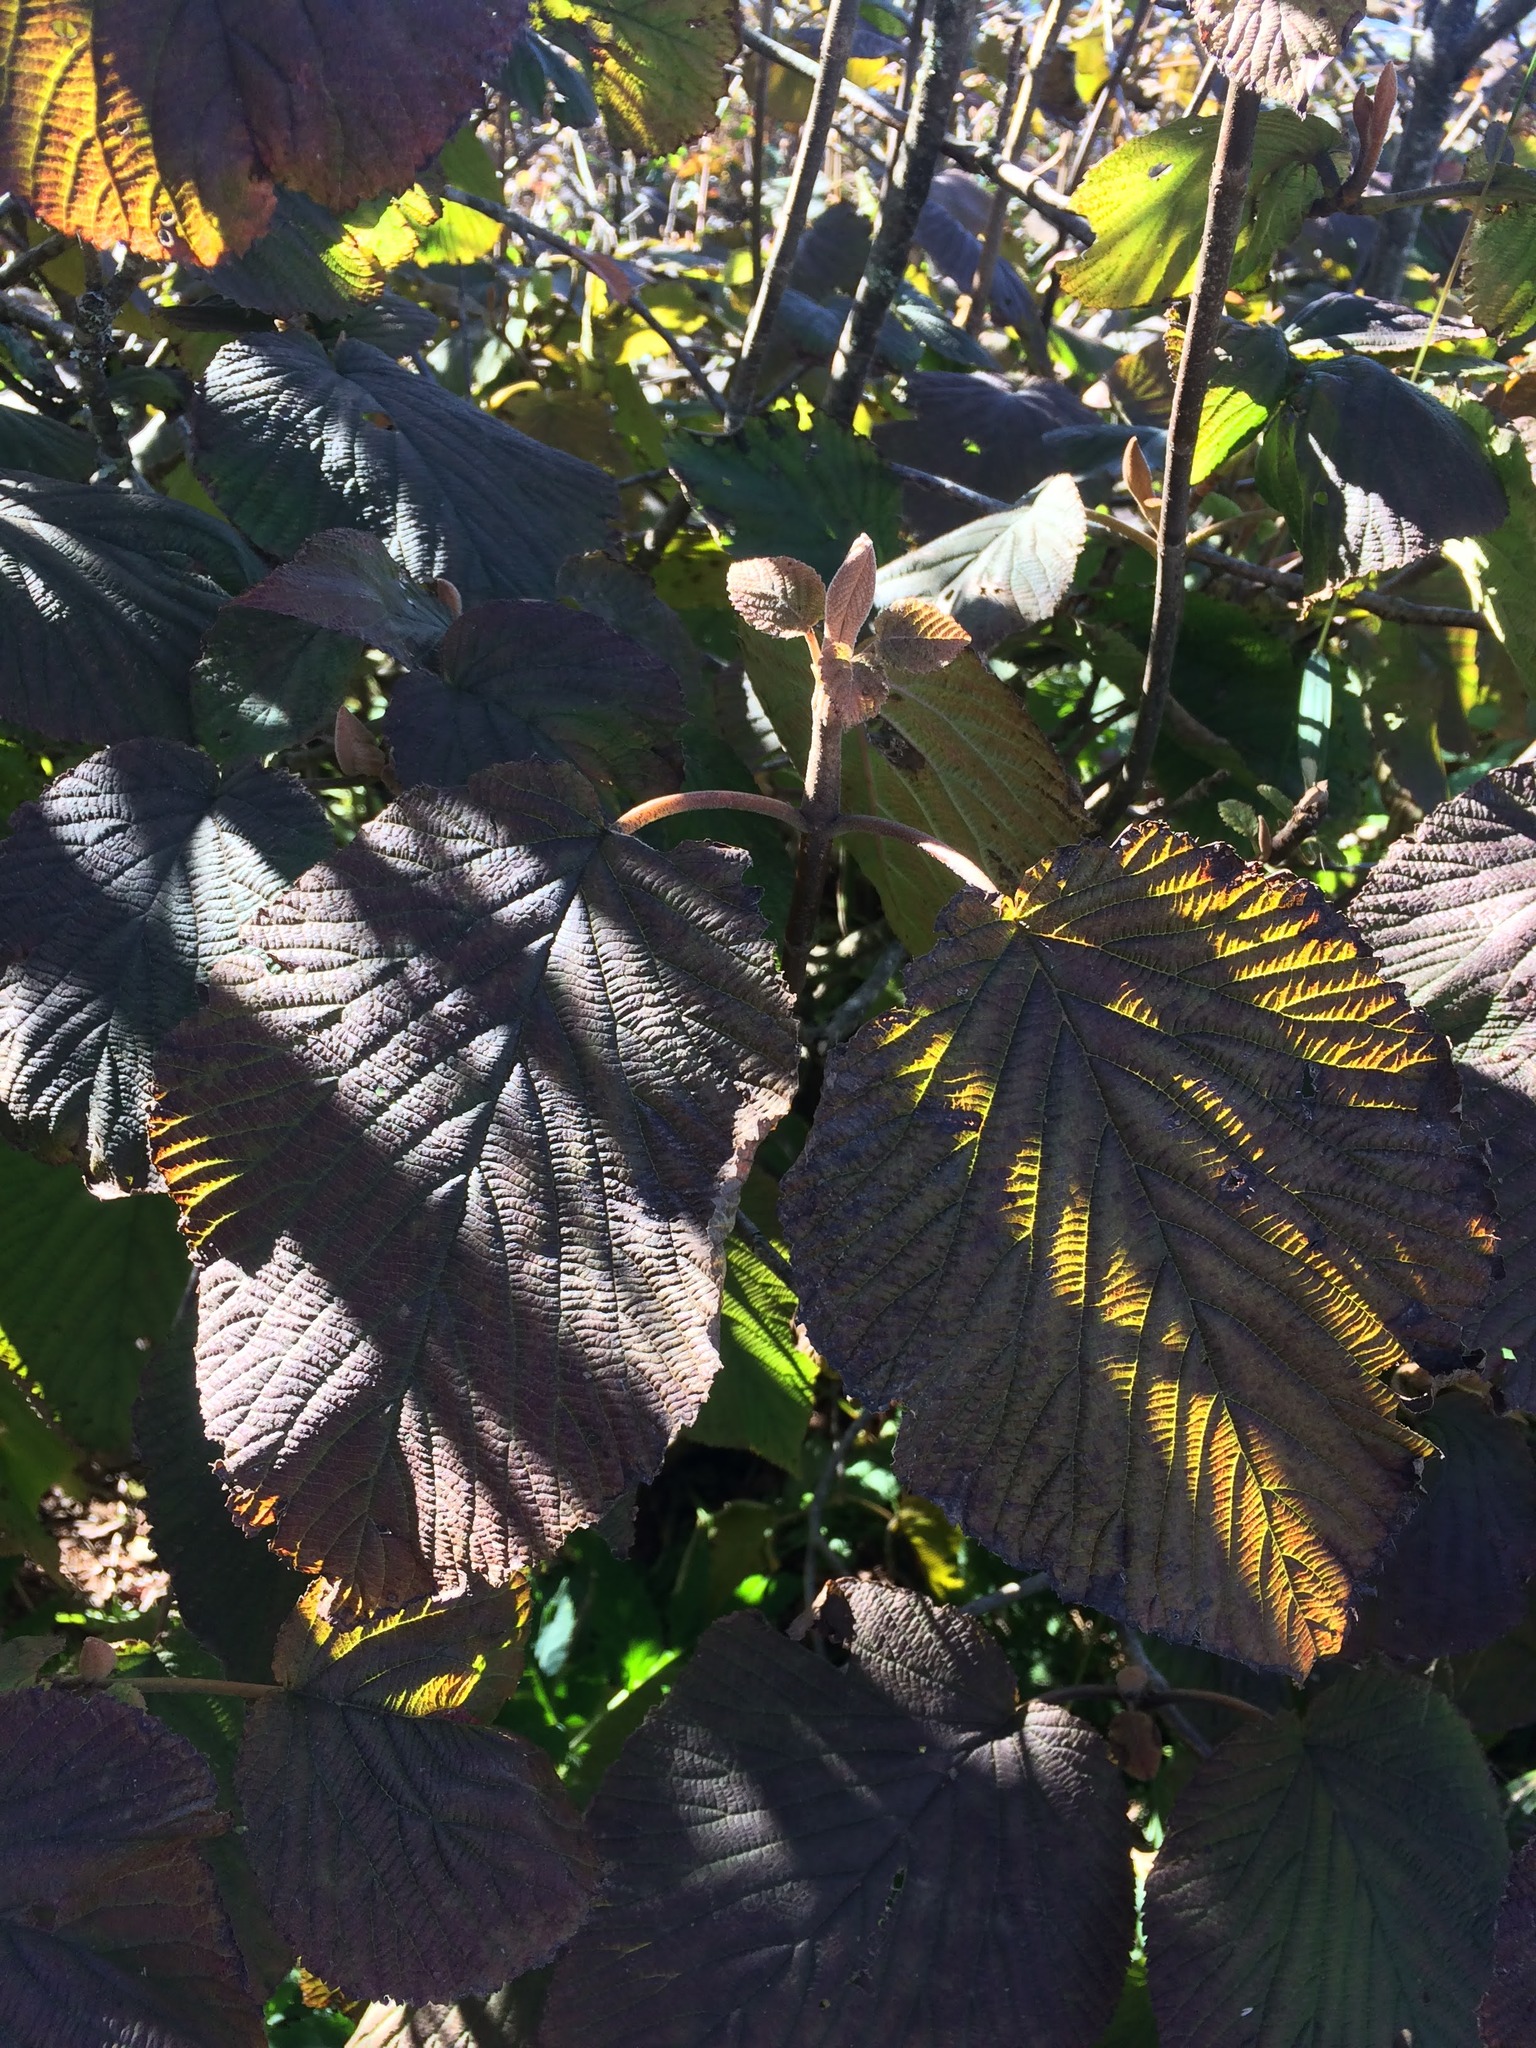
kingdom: Plantae
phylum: Tracheophyta
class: Magnoliopsida
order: Dipsacales
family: Viburnaceae
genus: Viburnum
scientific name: Viburnum lantanoides
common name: Hobblebush
